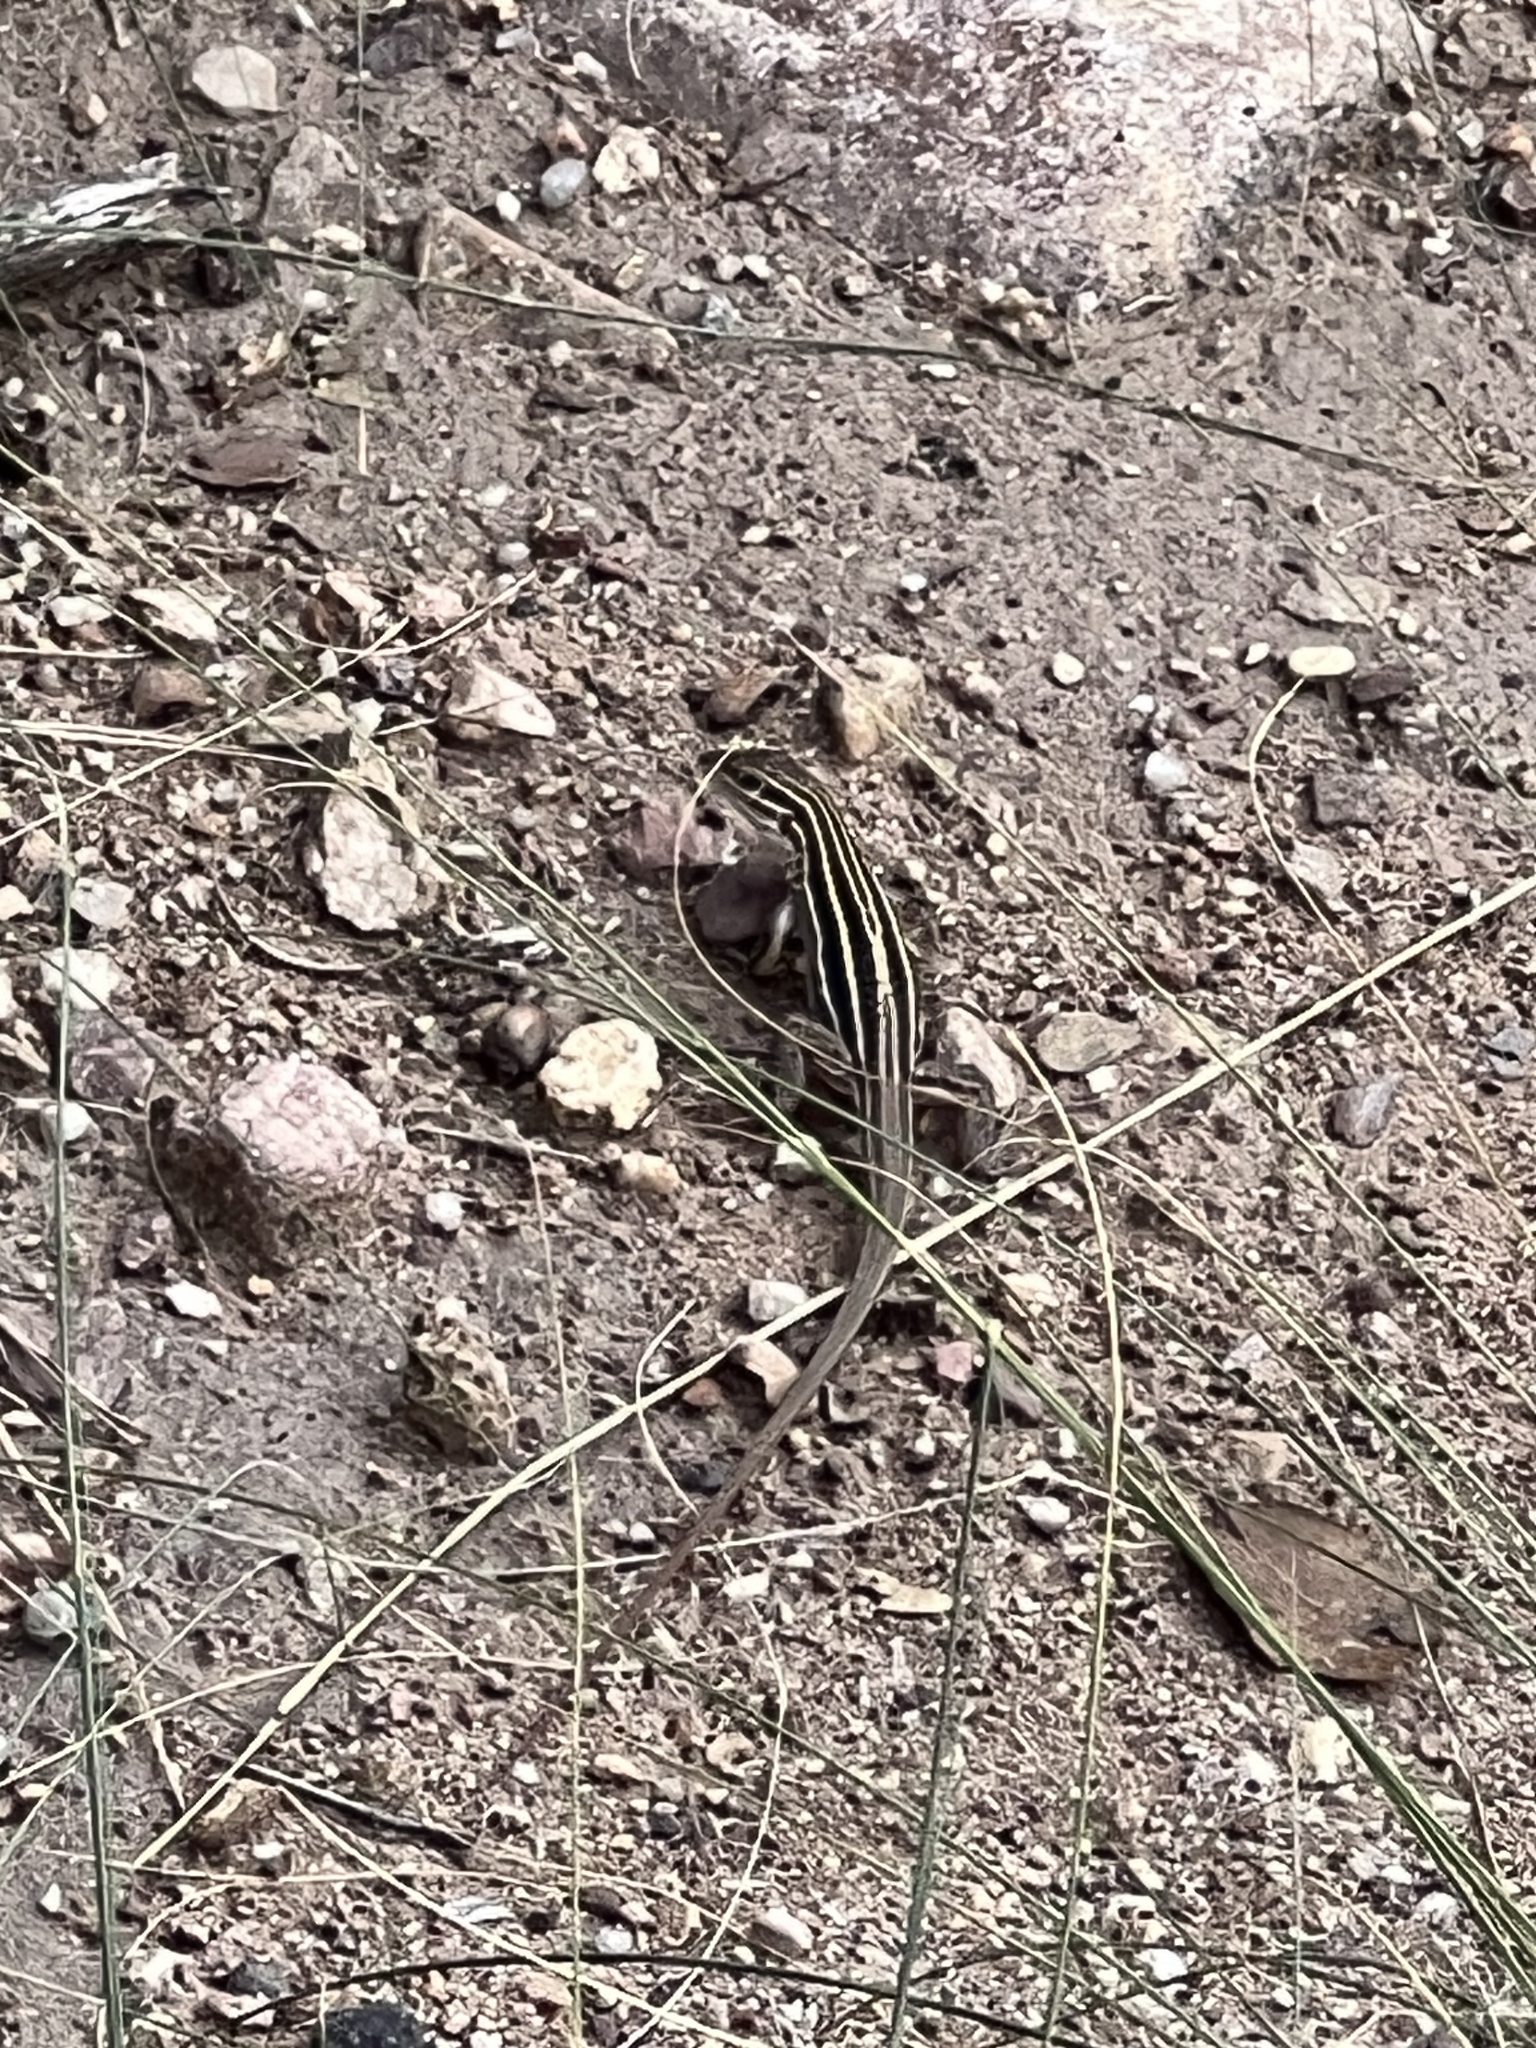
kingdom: Animalia
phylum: Chordata
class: Squamata
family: Teiidae
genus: Aspidoscelis
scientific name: Aspidoscelis uniparens
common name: Desert grassland whiptail
